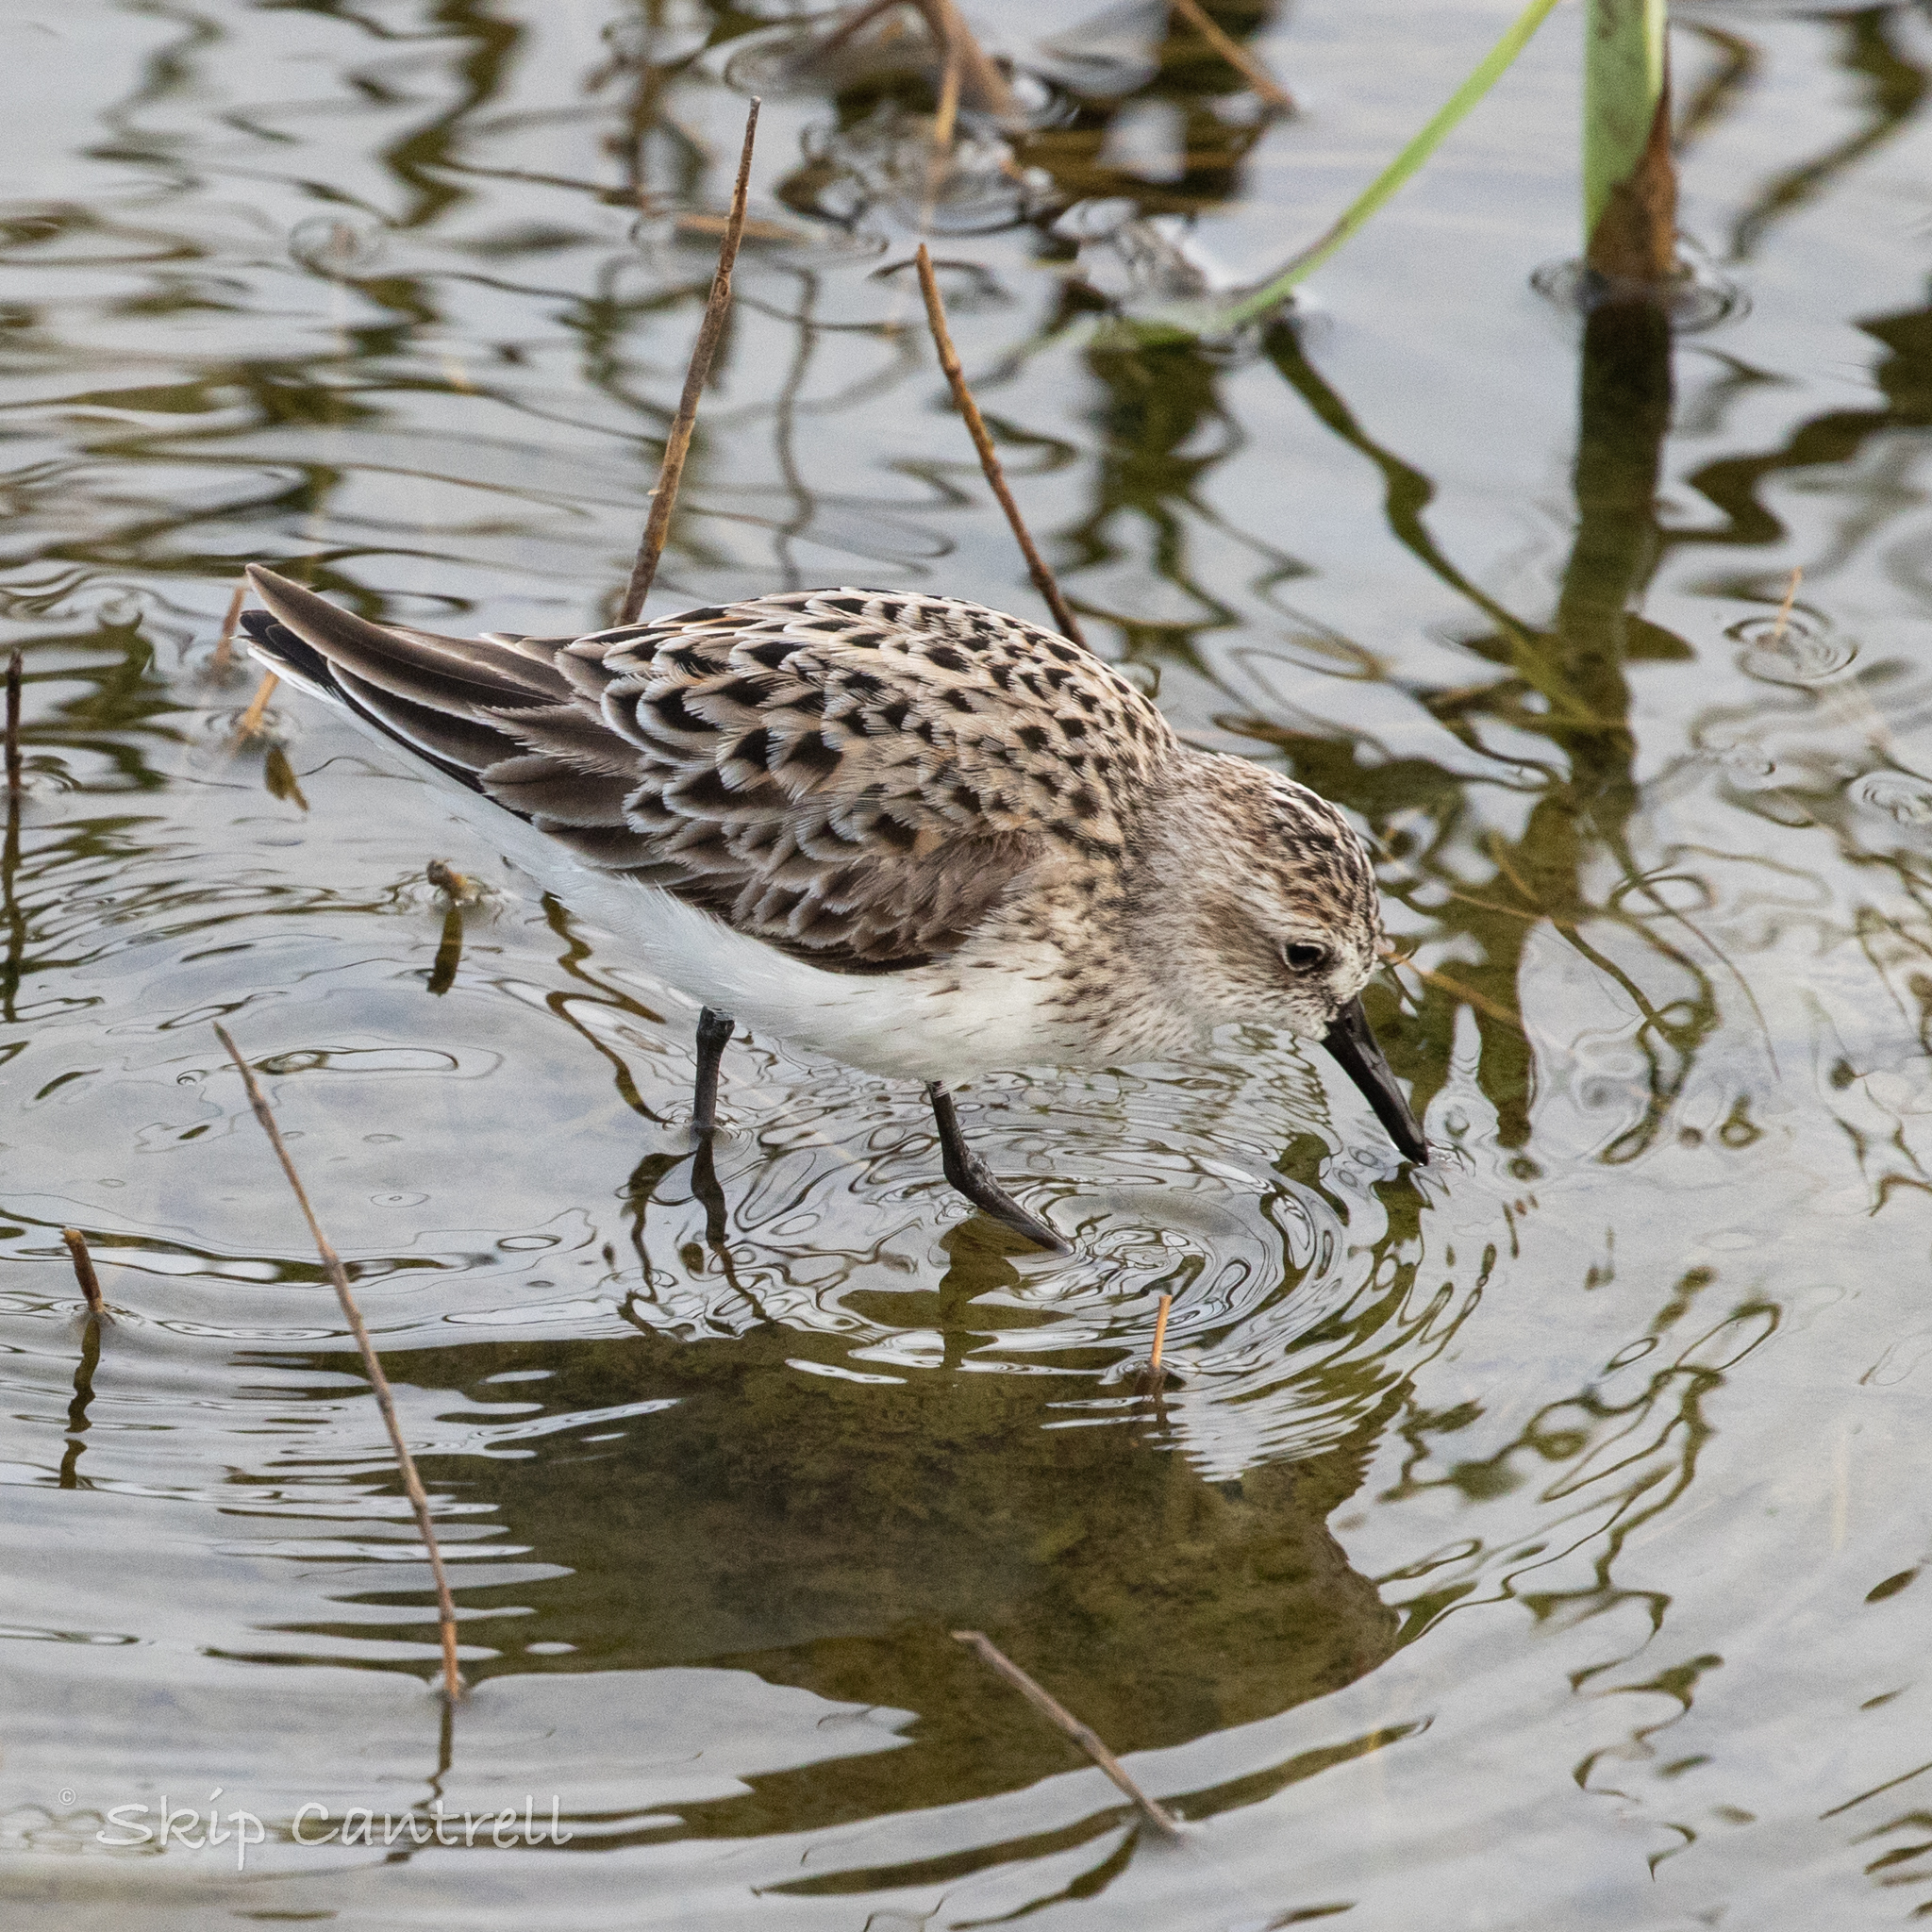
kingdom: Animalia
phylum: Chordata
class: Aves
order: Charadriiformes
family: Scolopacidae
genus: Calidris
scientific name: Calidris pusilla
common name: Semipalmated sandpiper
